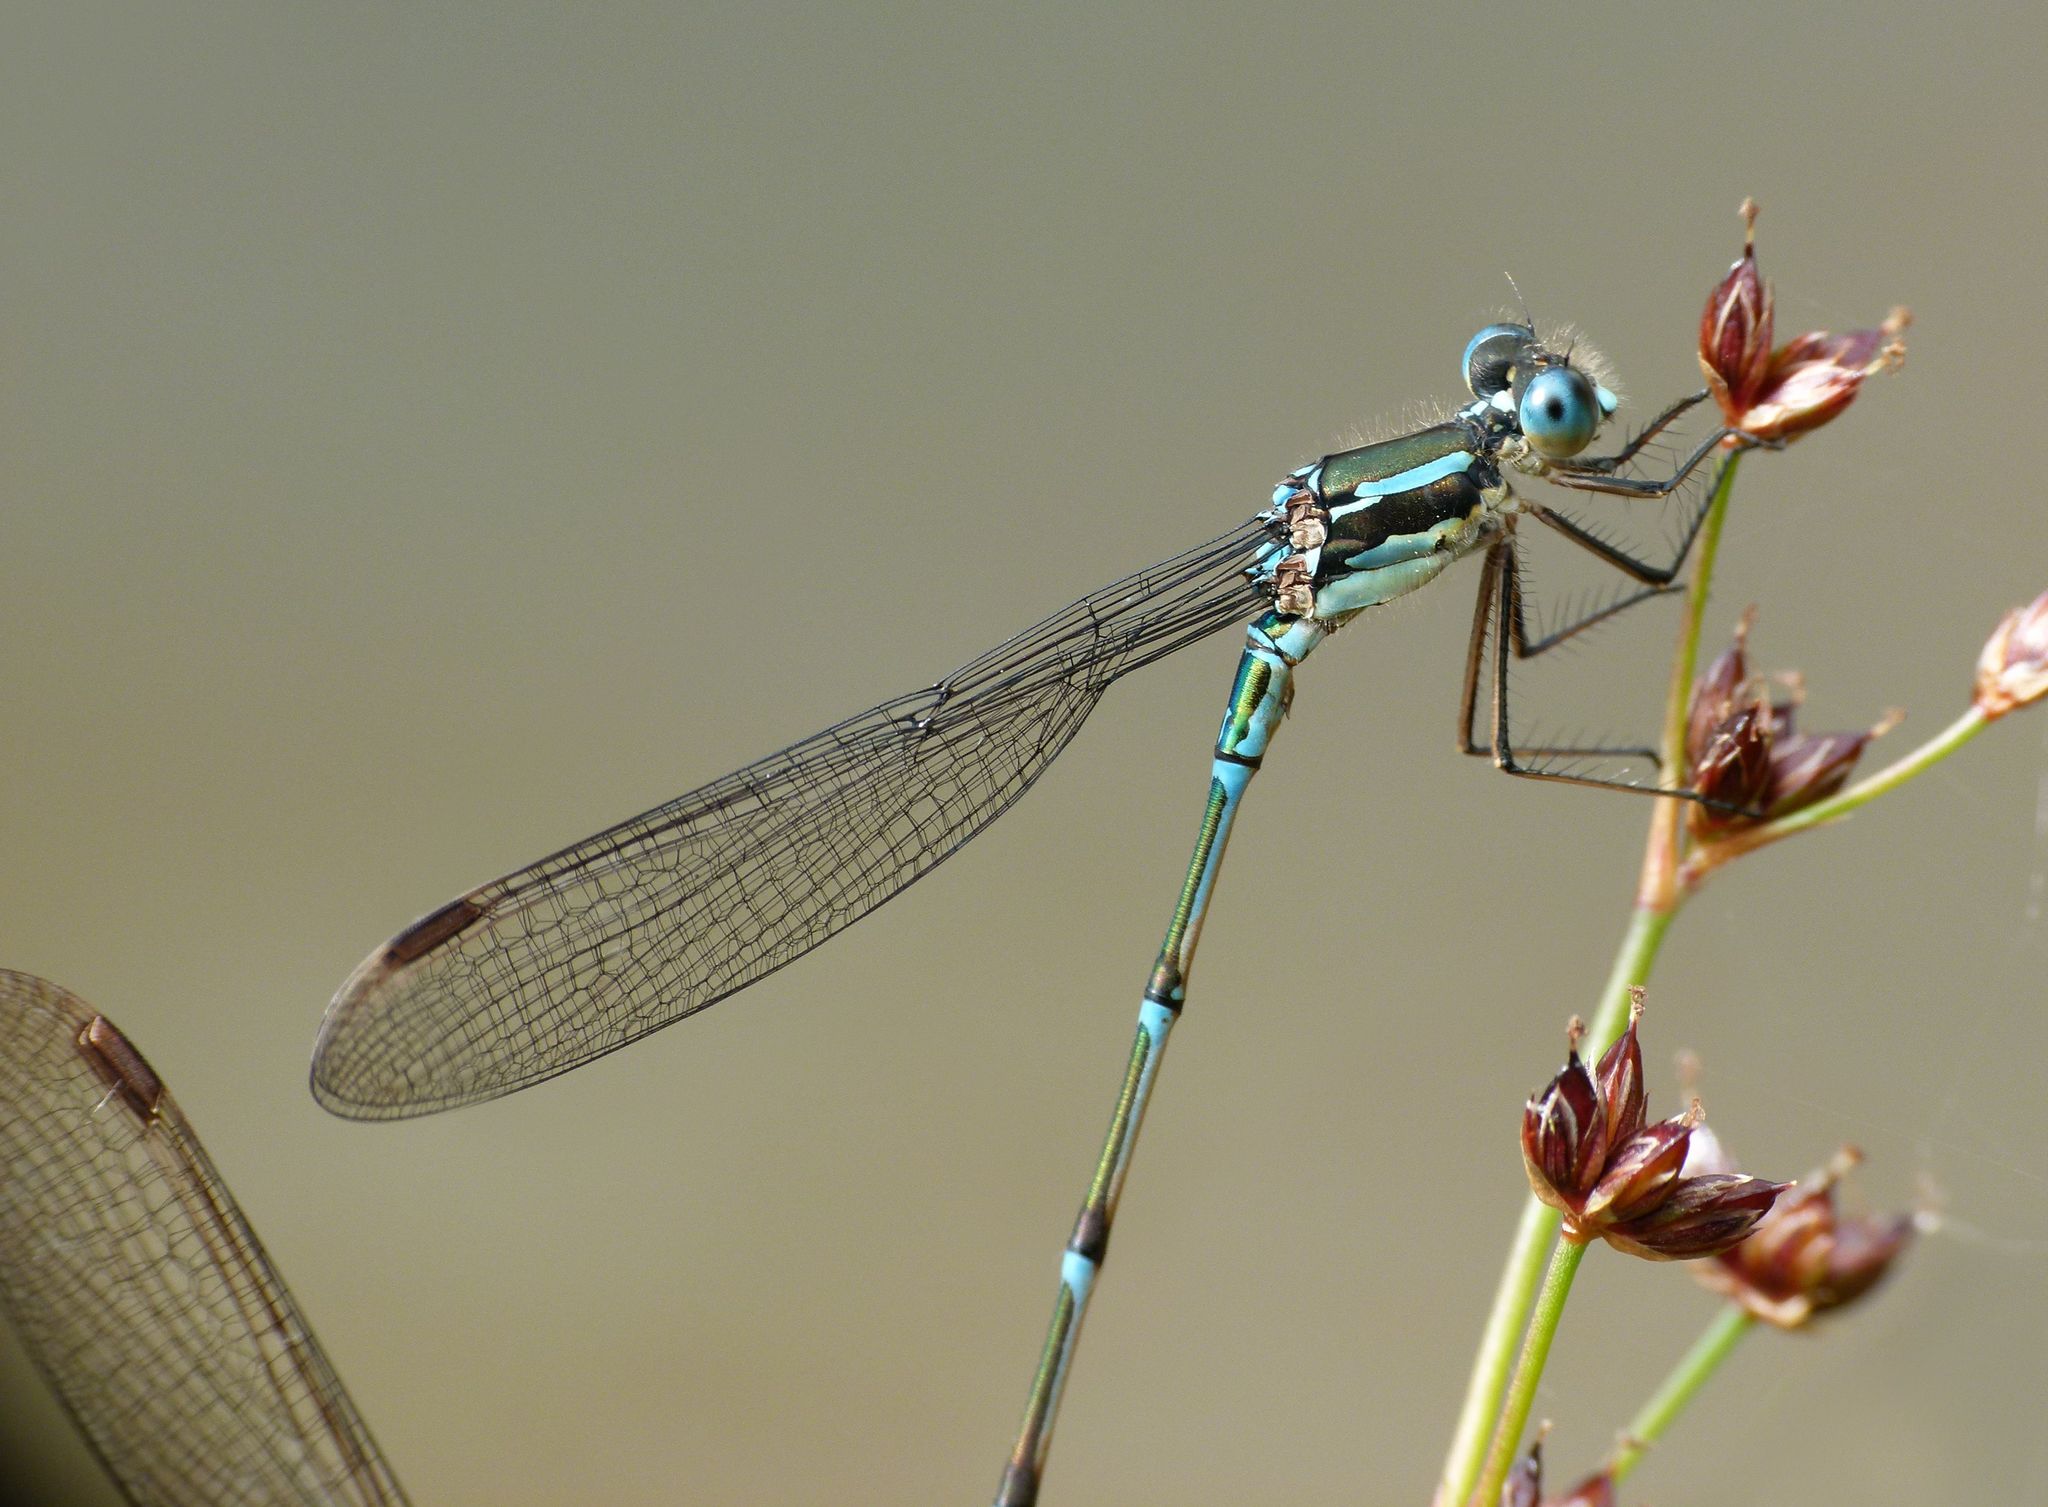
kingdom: Animalia
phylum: Arthropoda
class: Insecta
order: Odonata
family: Lestidae
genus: Austrolestes
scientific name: Austrolestes colensonis
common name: Blue damselfly
